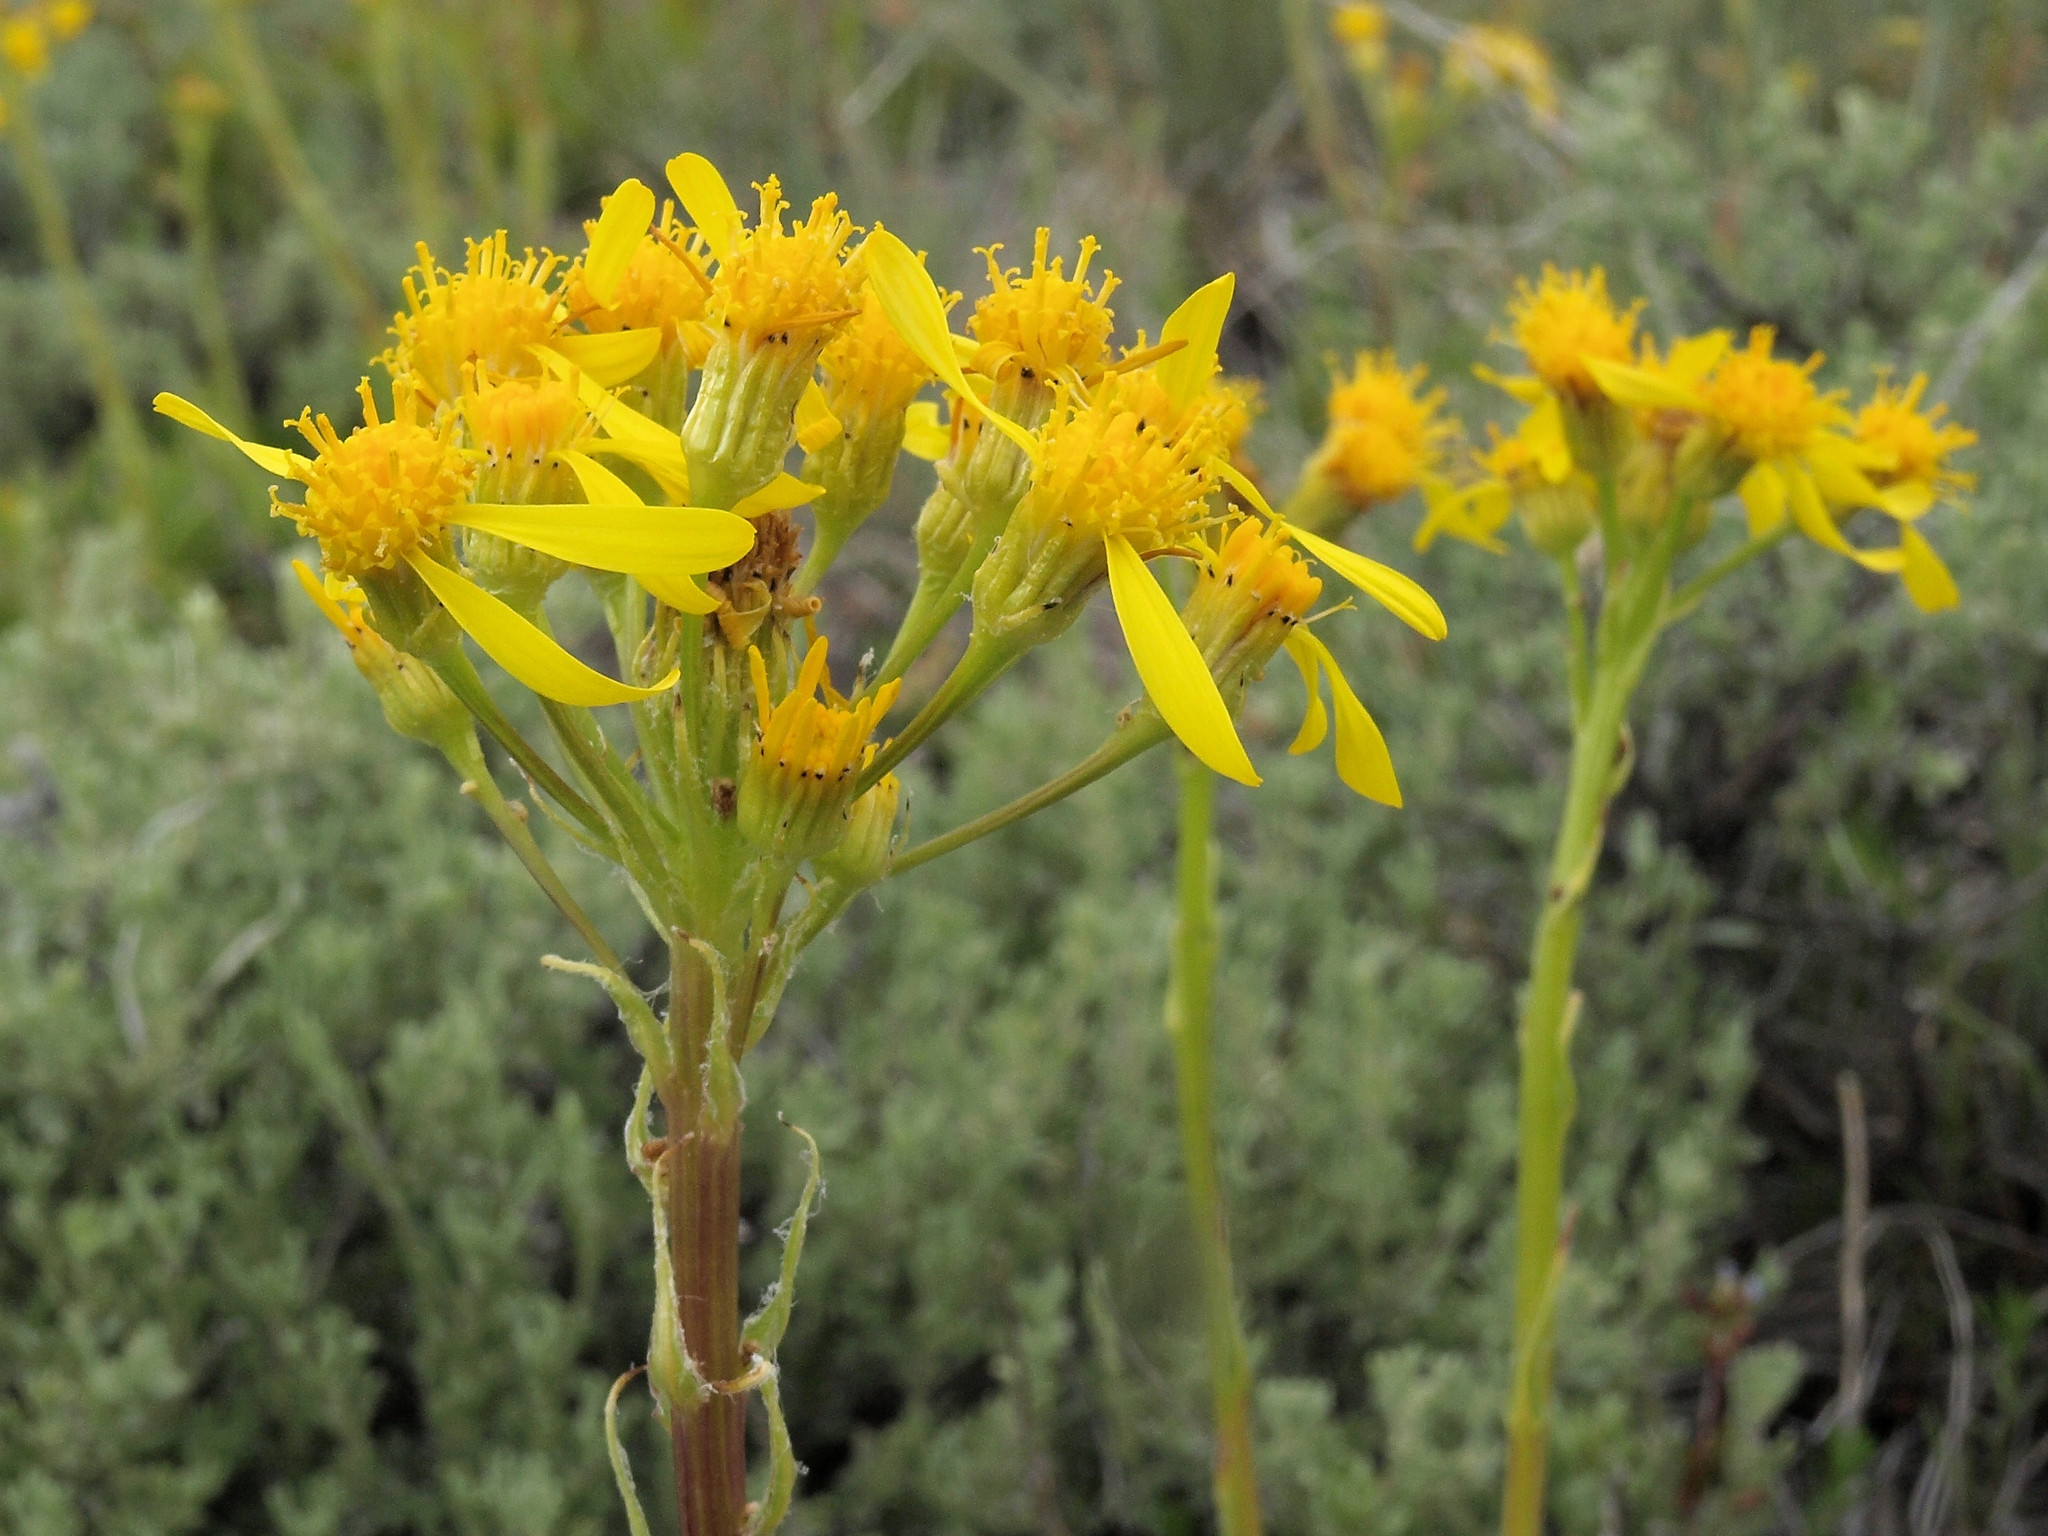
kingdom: Plantae
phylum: Tracheophyta
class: Magnoliopsida
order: Asterales
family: Asteraceae
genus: Senecio
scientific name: Senecio integerrimus
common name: Gaugeplant
